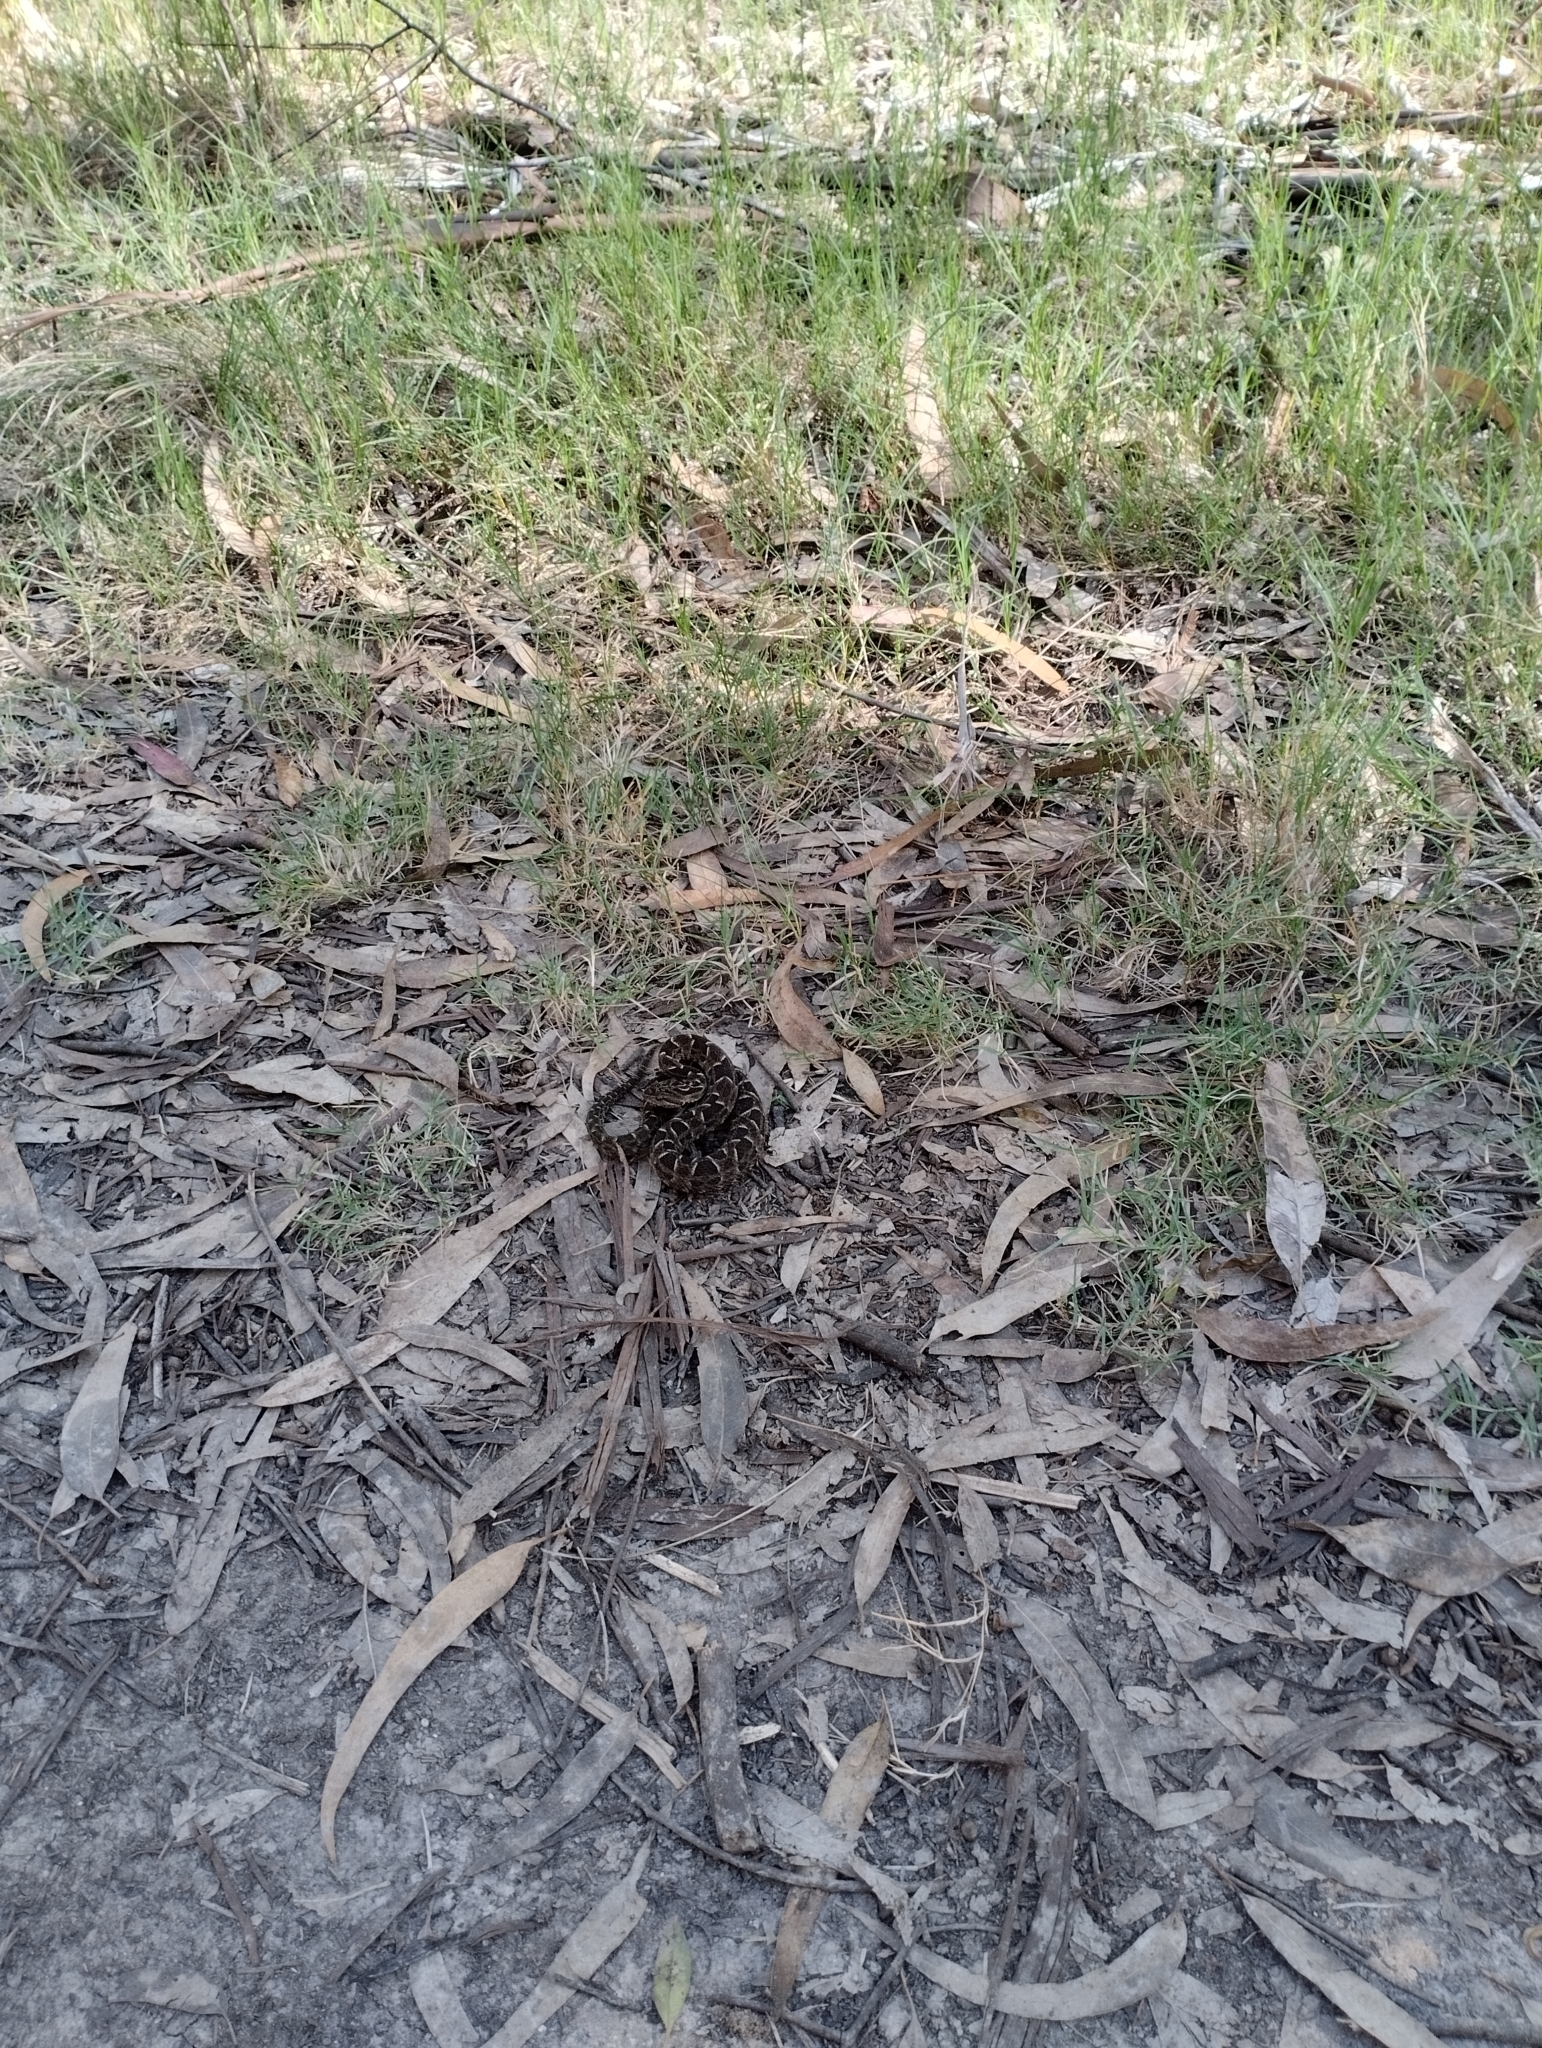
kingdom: Animalia
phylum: Chordata
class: Squamata
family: Viperidae
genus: Bothrops
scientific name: Bothrops pubescens
